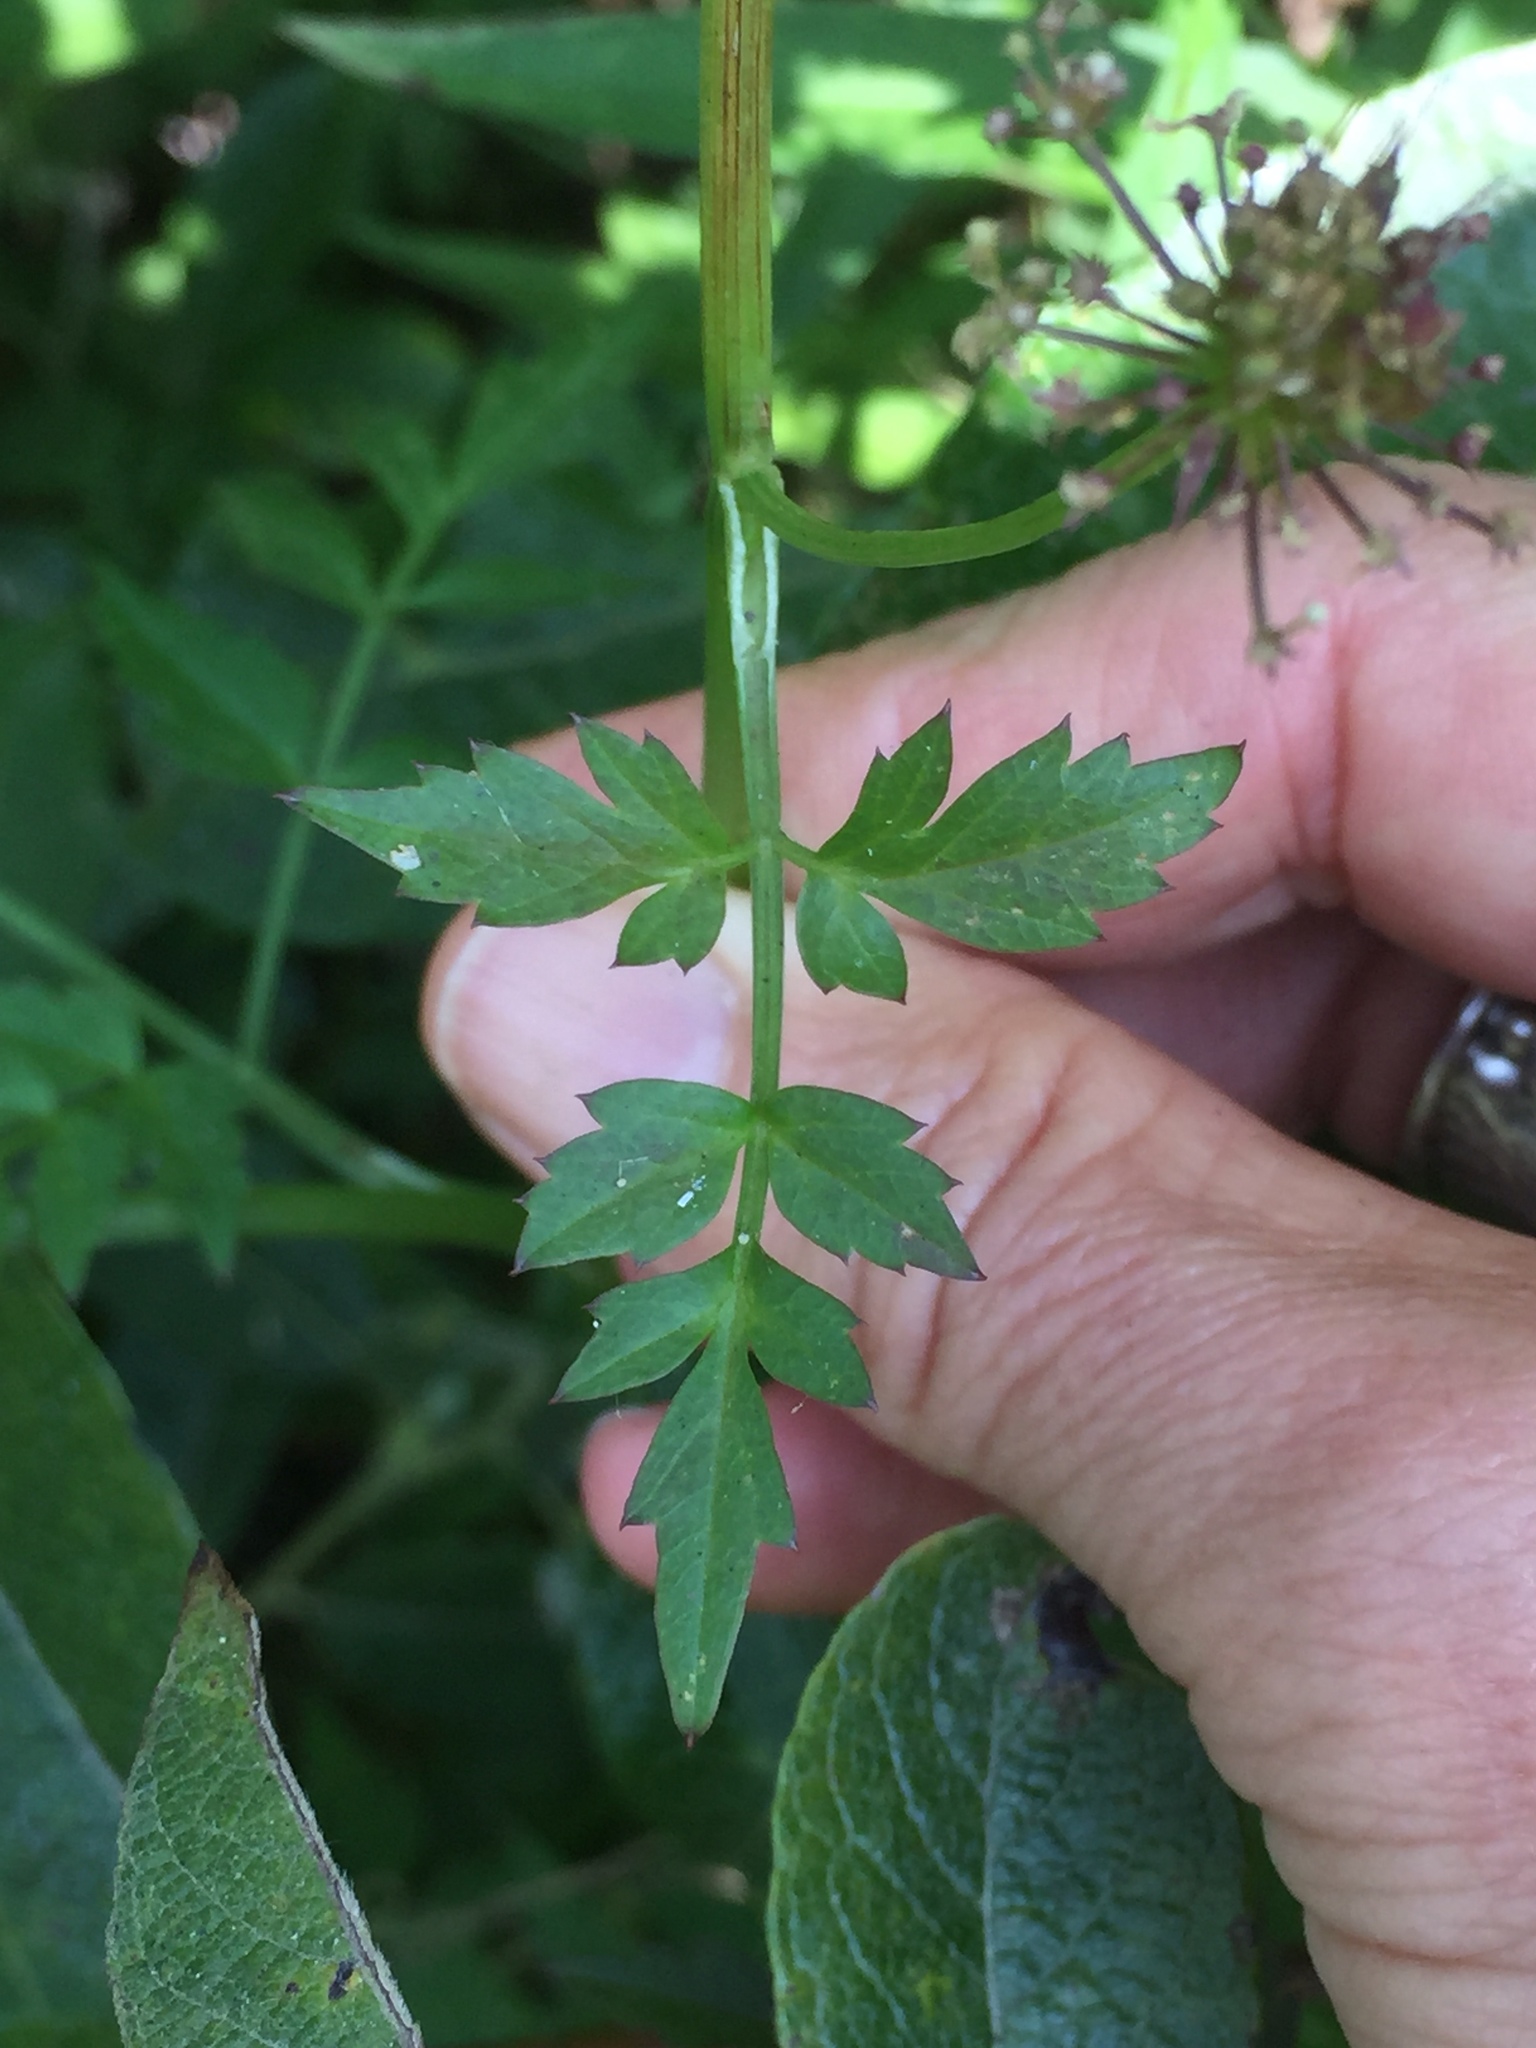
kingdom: Plantae
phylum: Tracheophyta
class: Magnoliopsida
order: Apiales
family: Apiaceae
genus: Oenanthe
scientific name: Oenanthe sarmentosa
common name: American water-parsley
